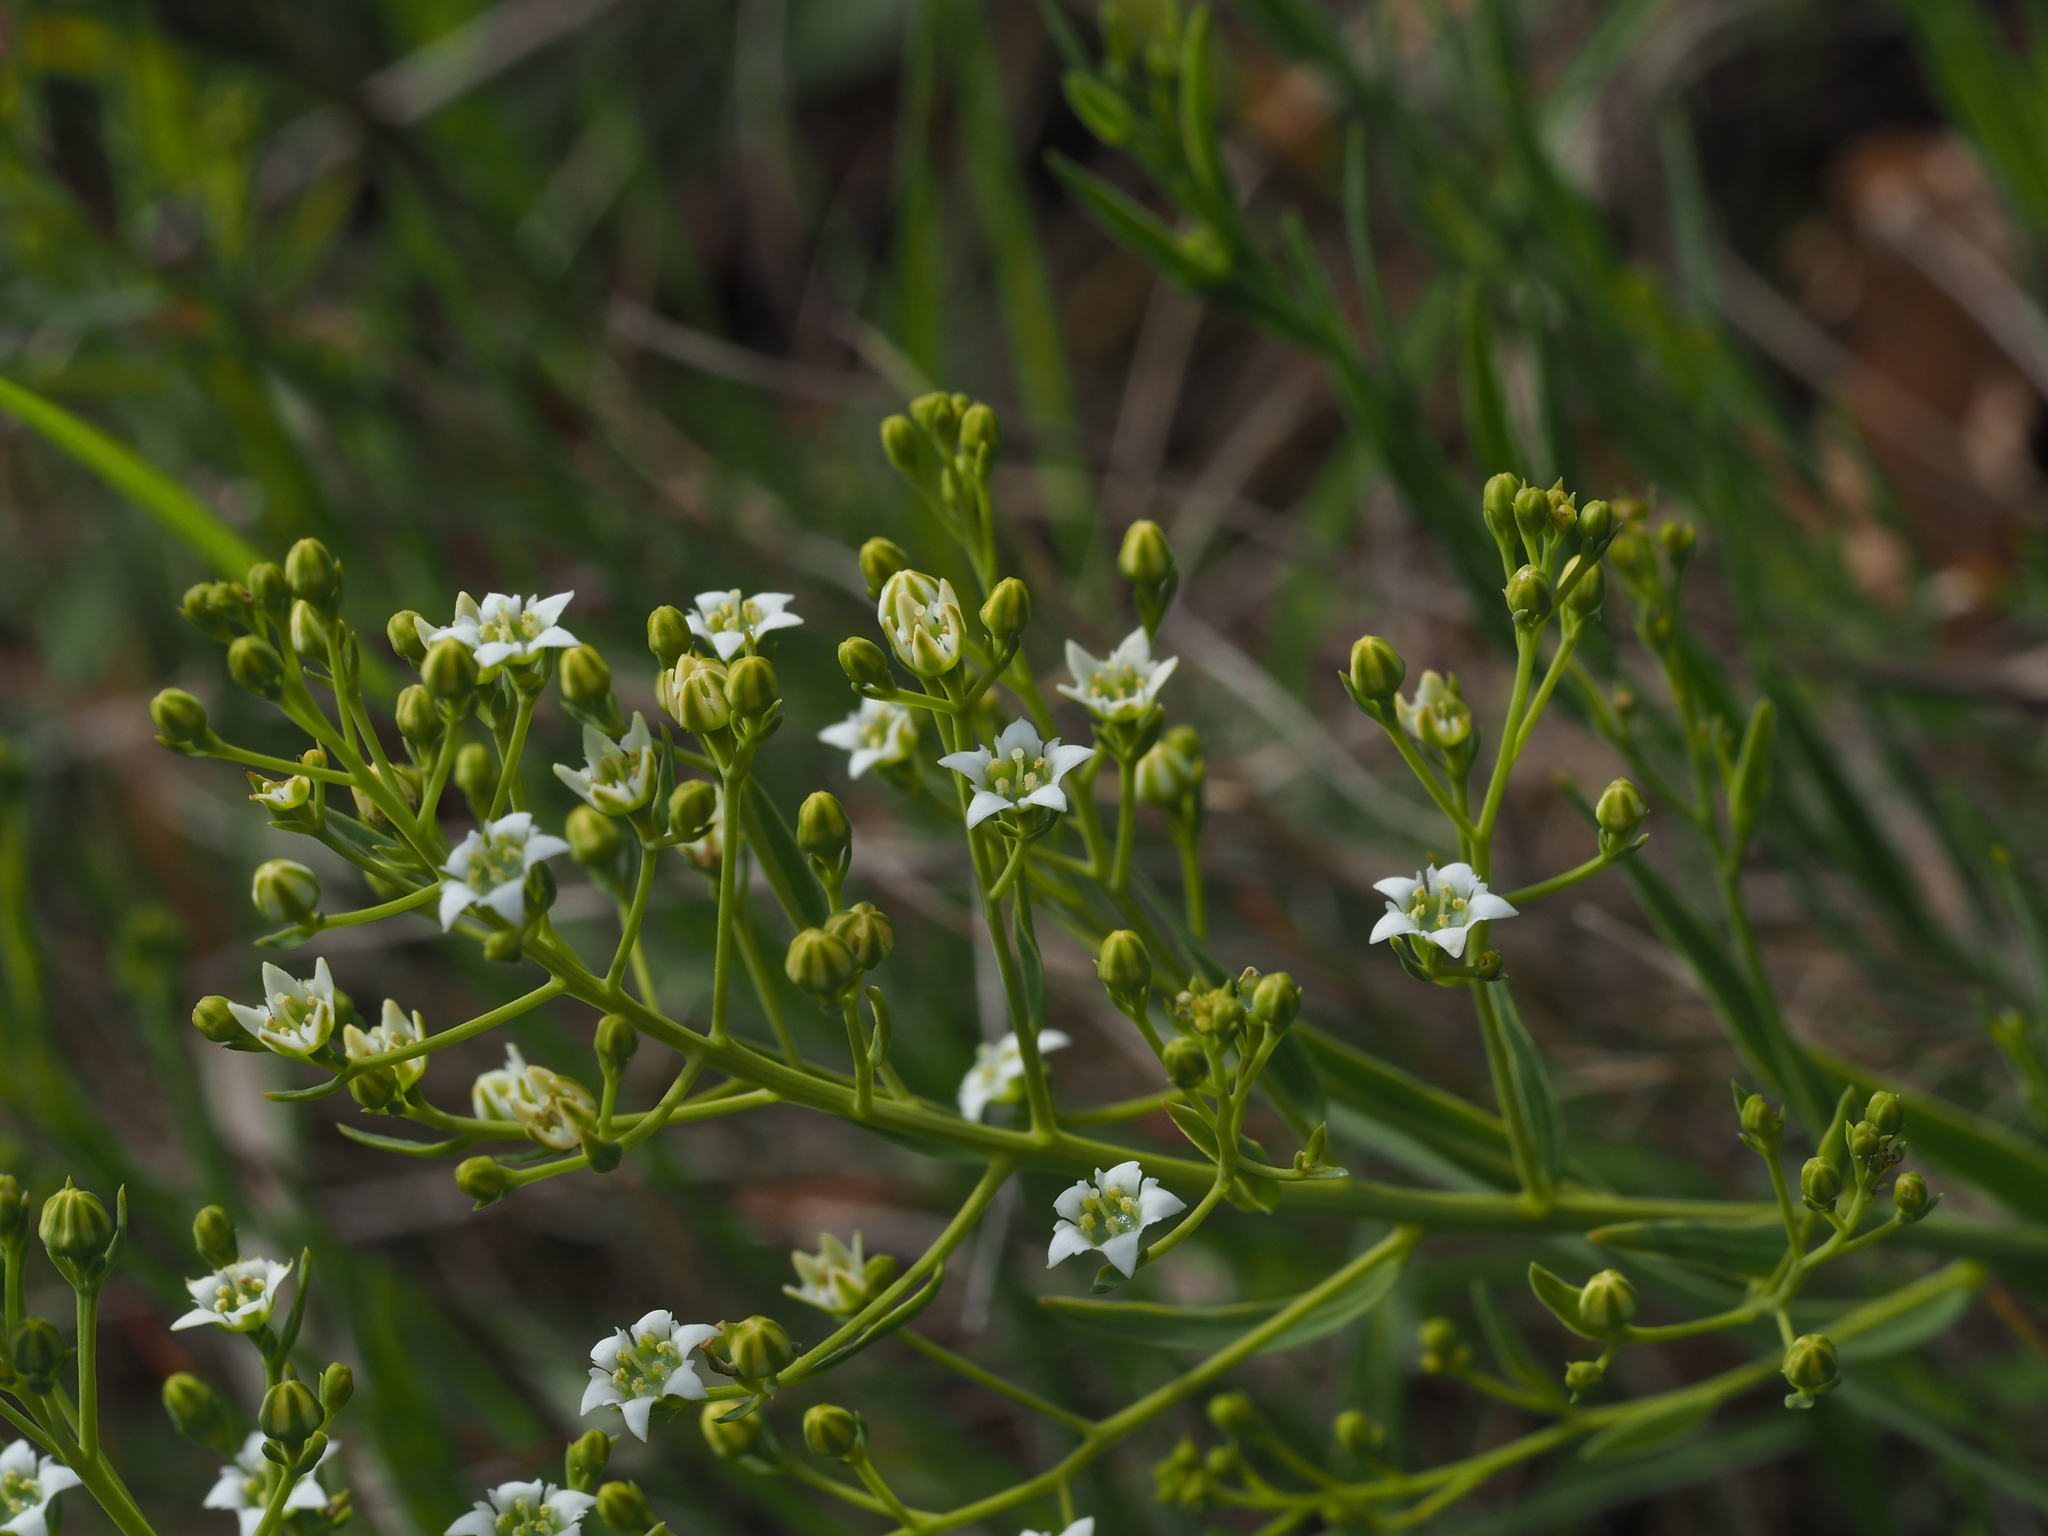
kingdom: Plantae
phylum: Tracheophyta
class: Magnoliopsida
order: Santalales
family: Thesiaceae
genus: Thesium
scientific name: Thesium linophyllon
